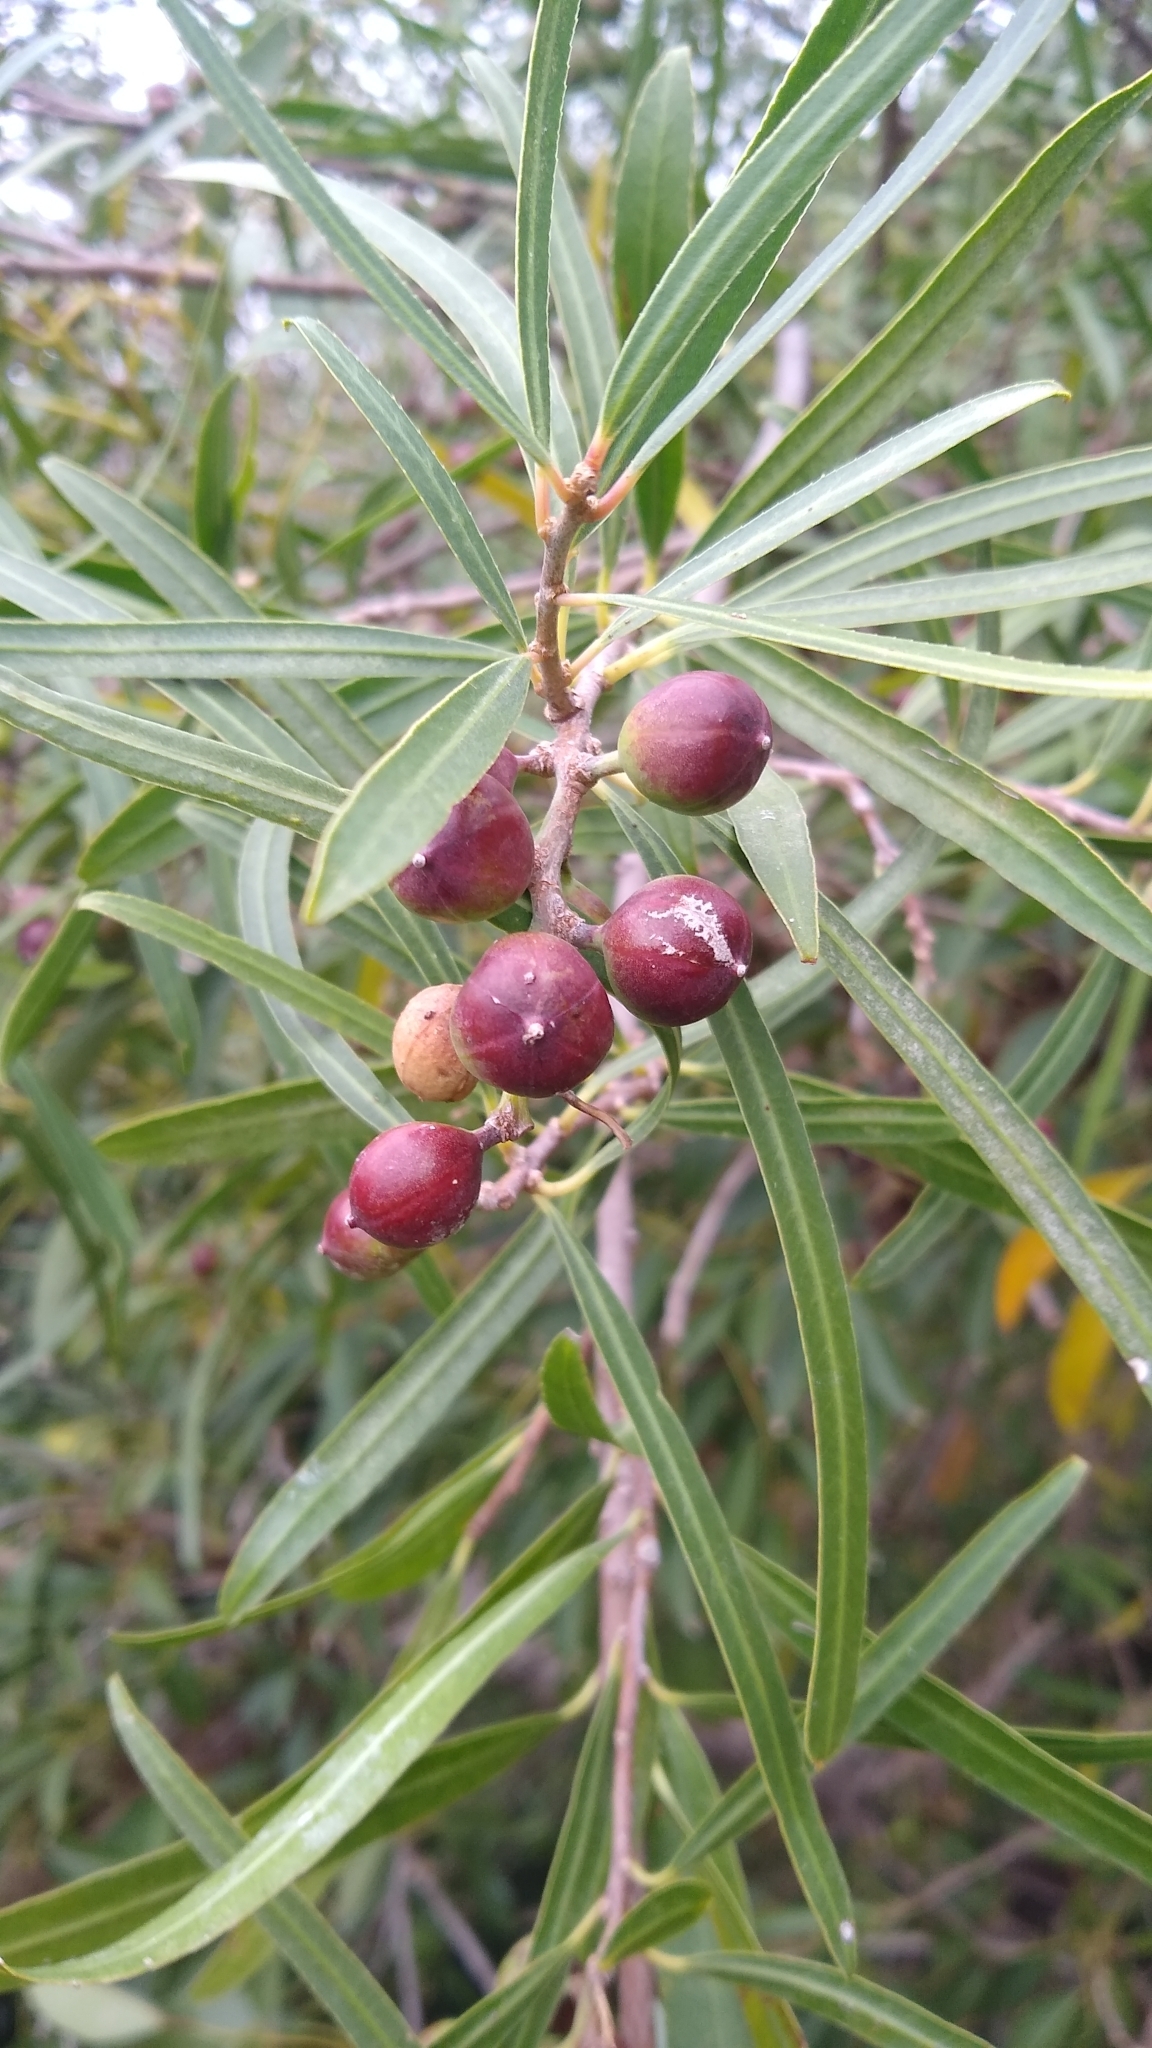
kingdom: Plantae
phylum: Tracheophyta
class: Magnoliopsida
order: Malpighiales
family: Euphorbiaceae
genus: Sapium
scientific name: Sapium haematospermum
